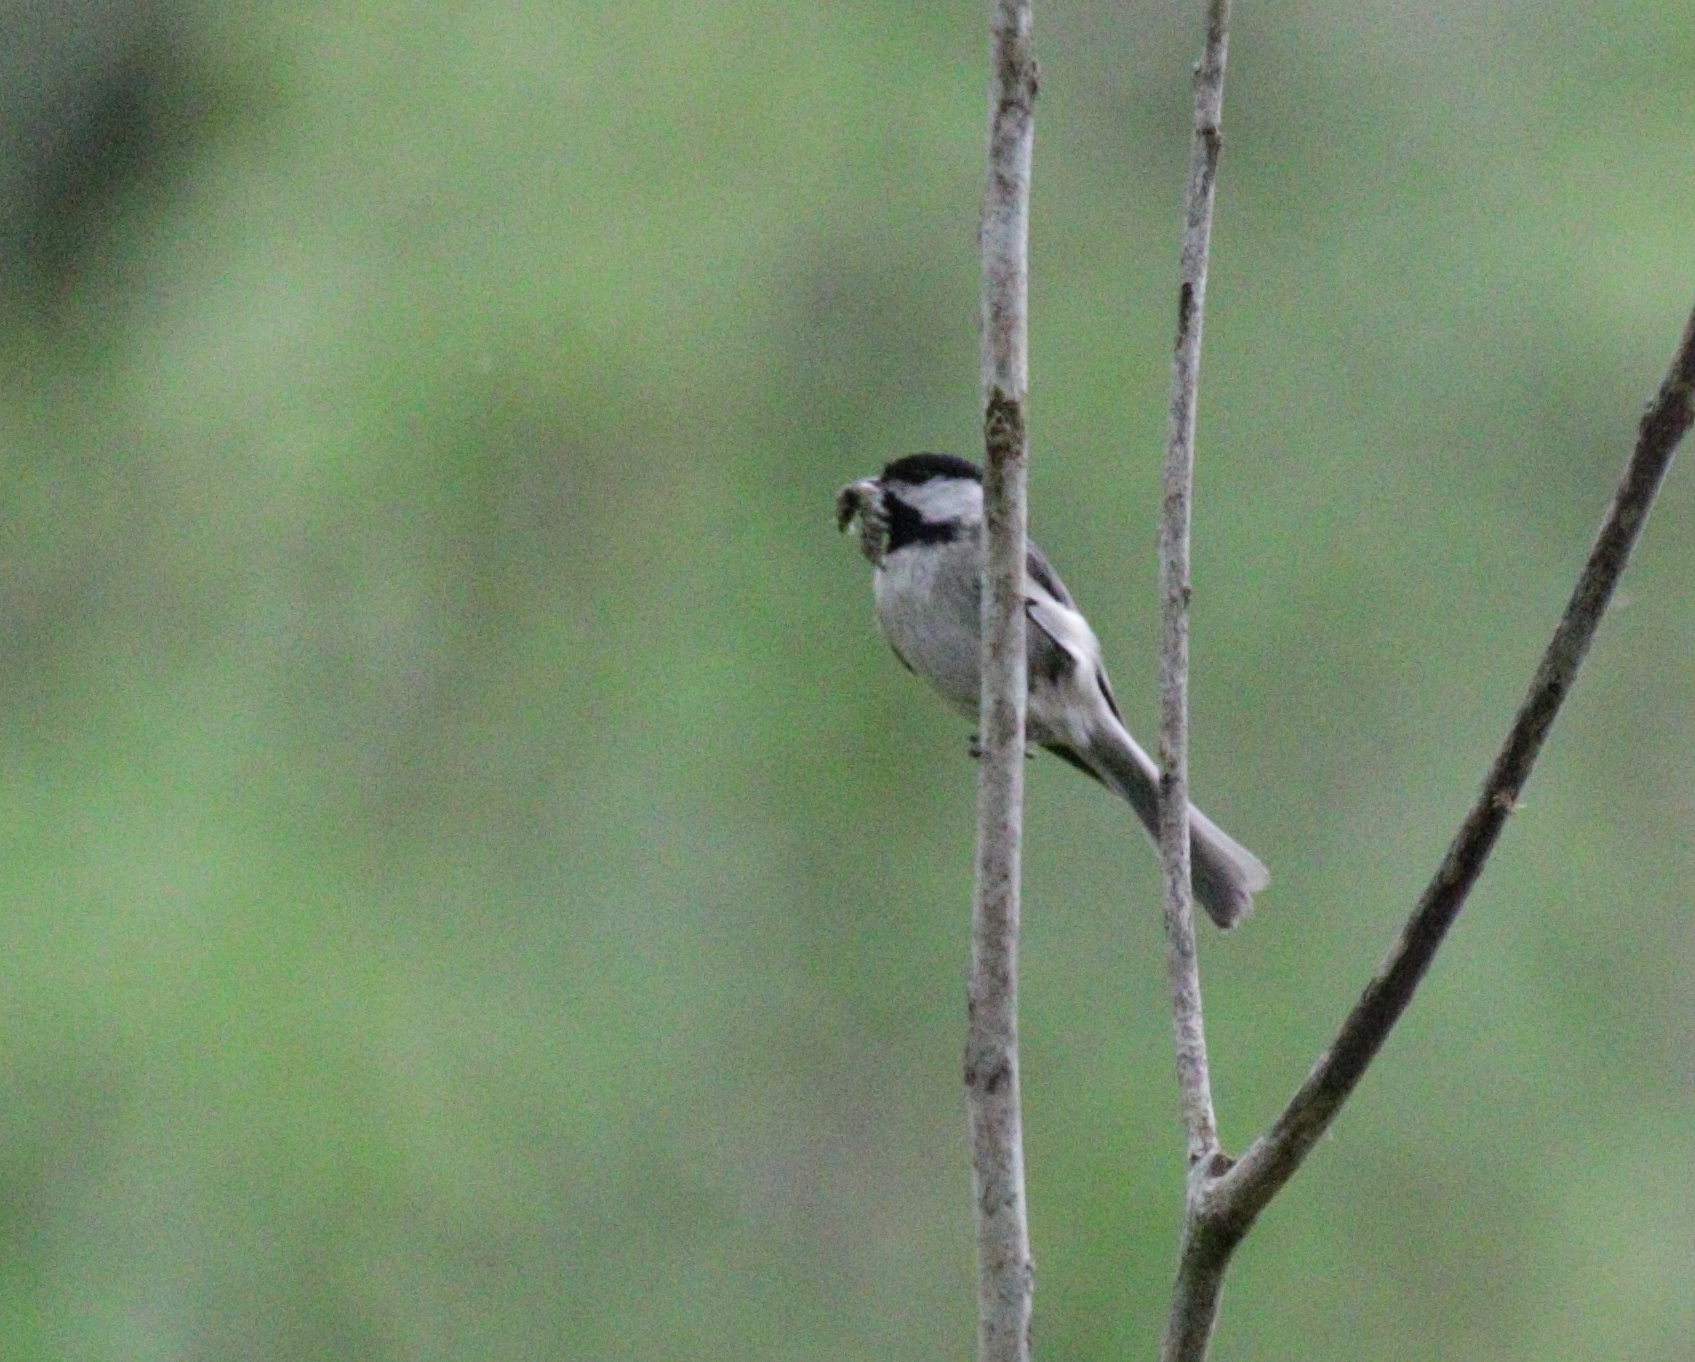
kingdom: Animalia
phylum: Chordata
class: Aves
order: Passeriformes
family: Paridae
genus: Poecile
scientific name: Poecile carolinensis
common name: Carolina chickadee
